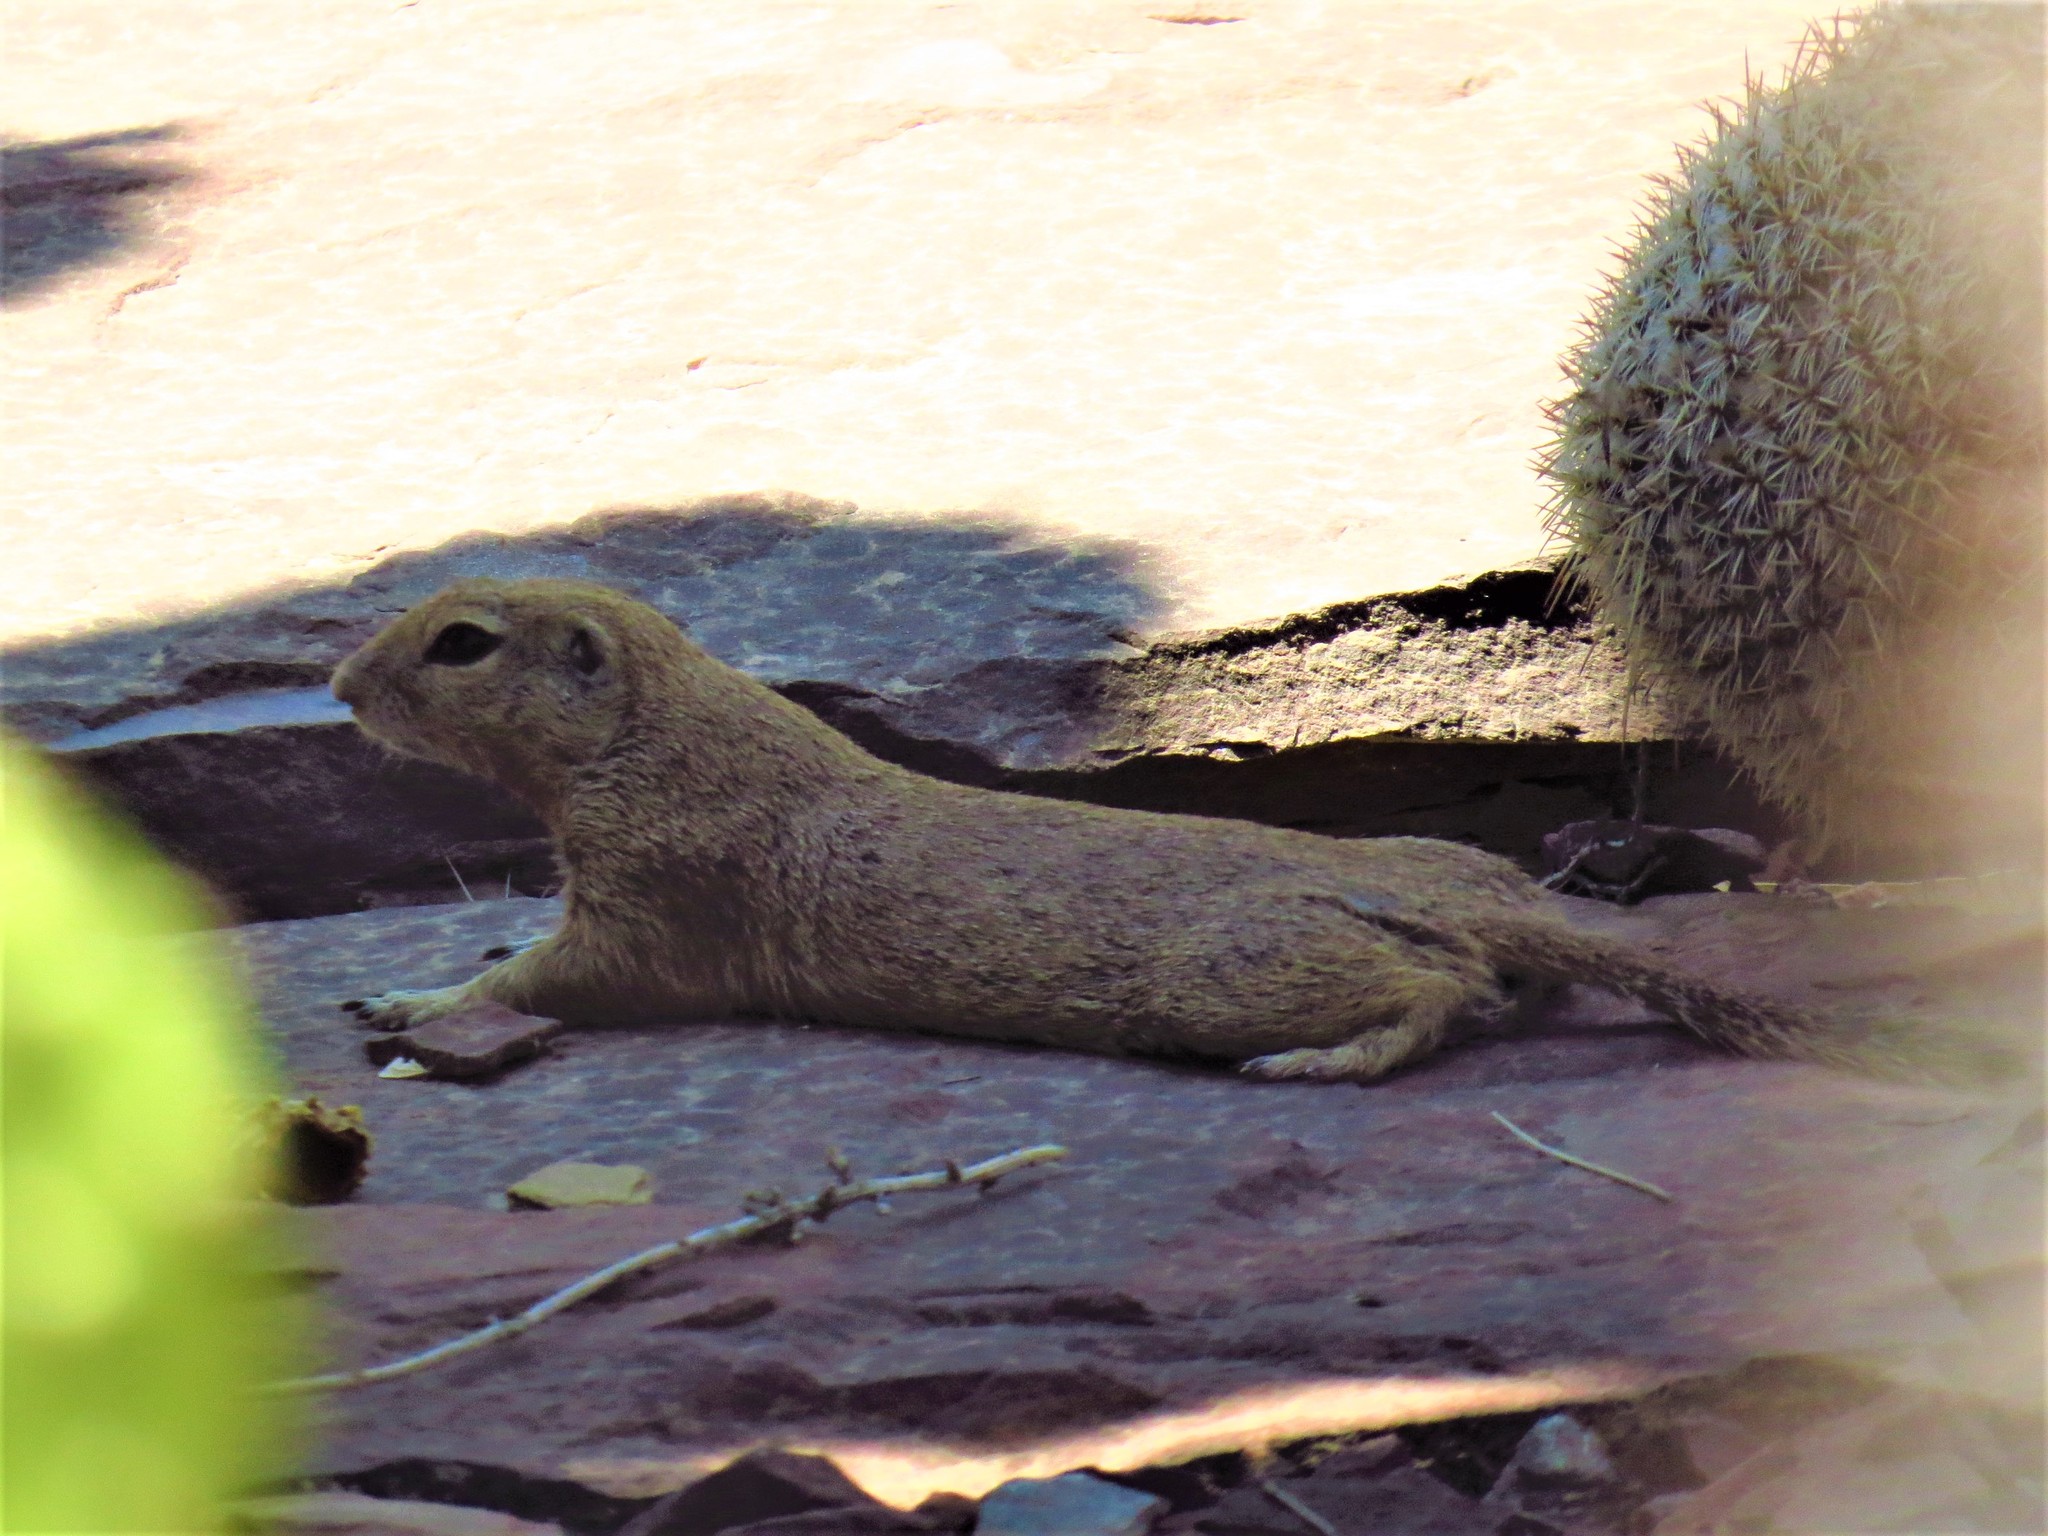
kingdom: Animalia
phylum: Chordata
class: Mammalia
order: Rodentia
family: Sciuridae
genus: Xerospermophilus
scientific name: Xerospermophilus tereticaudus
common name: Round-tailed ground squirrel
